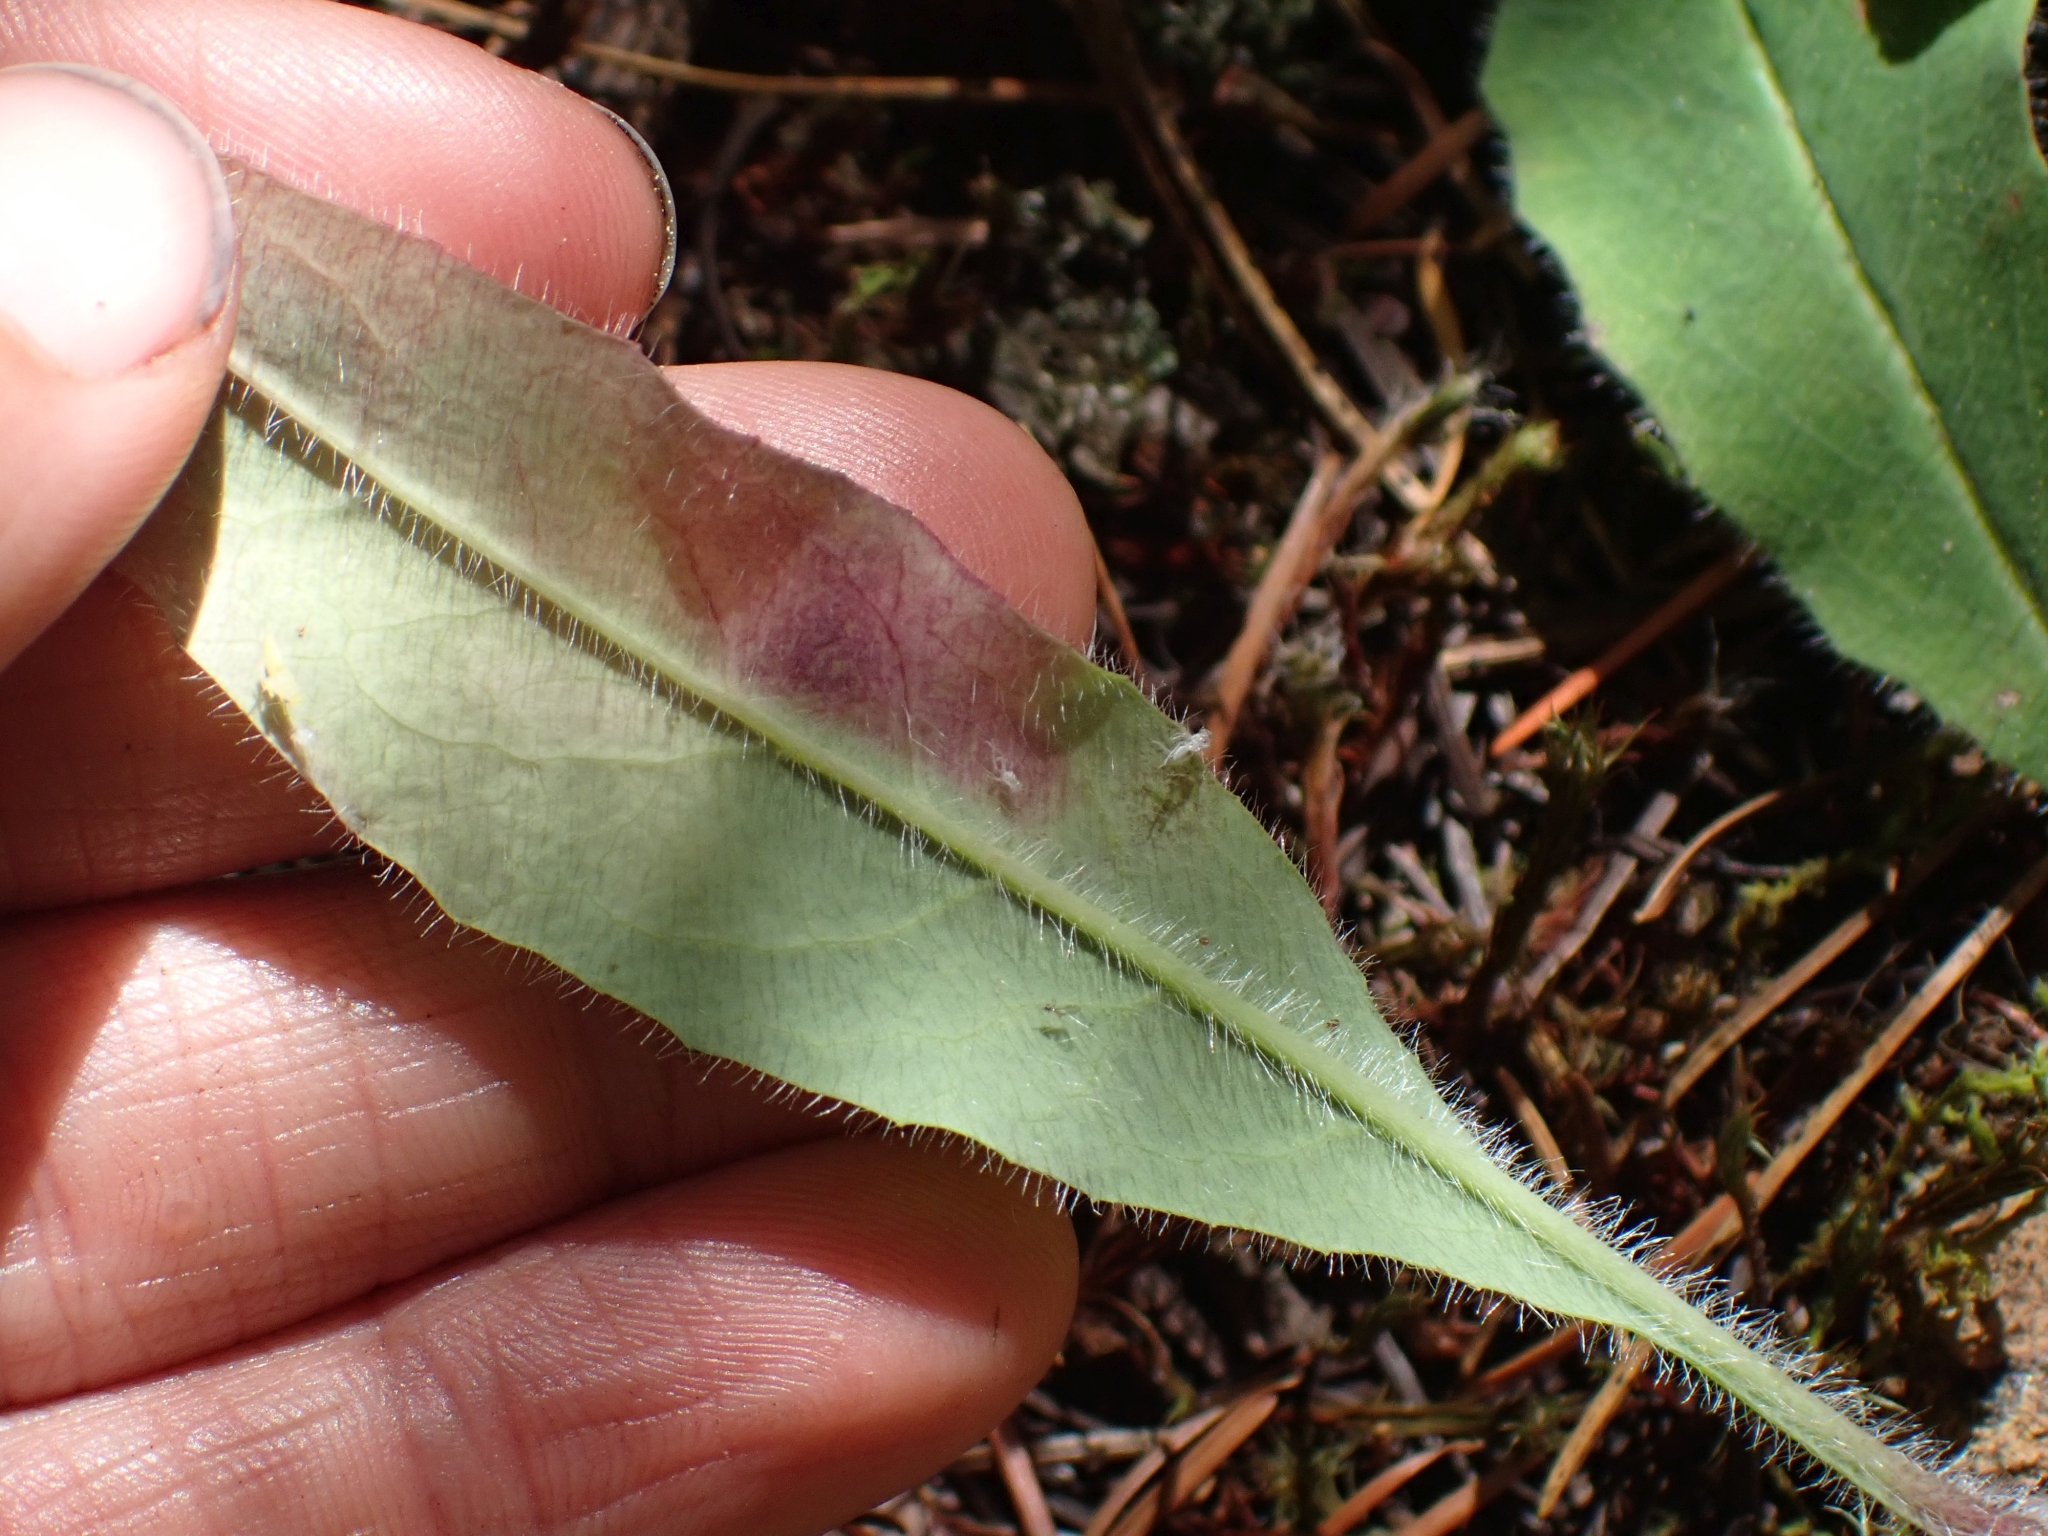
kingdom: Plantae
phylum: Tracheophyta
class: Magnoliopsida
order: Asterales
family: Asteraceae
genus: Hieracium
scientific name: Hieracium albiflorum
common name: White hawkweed
